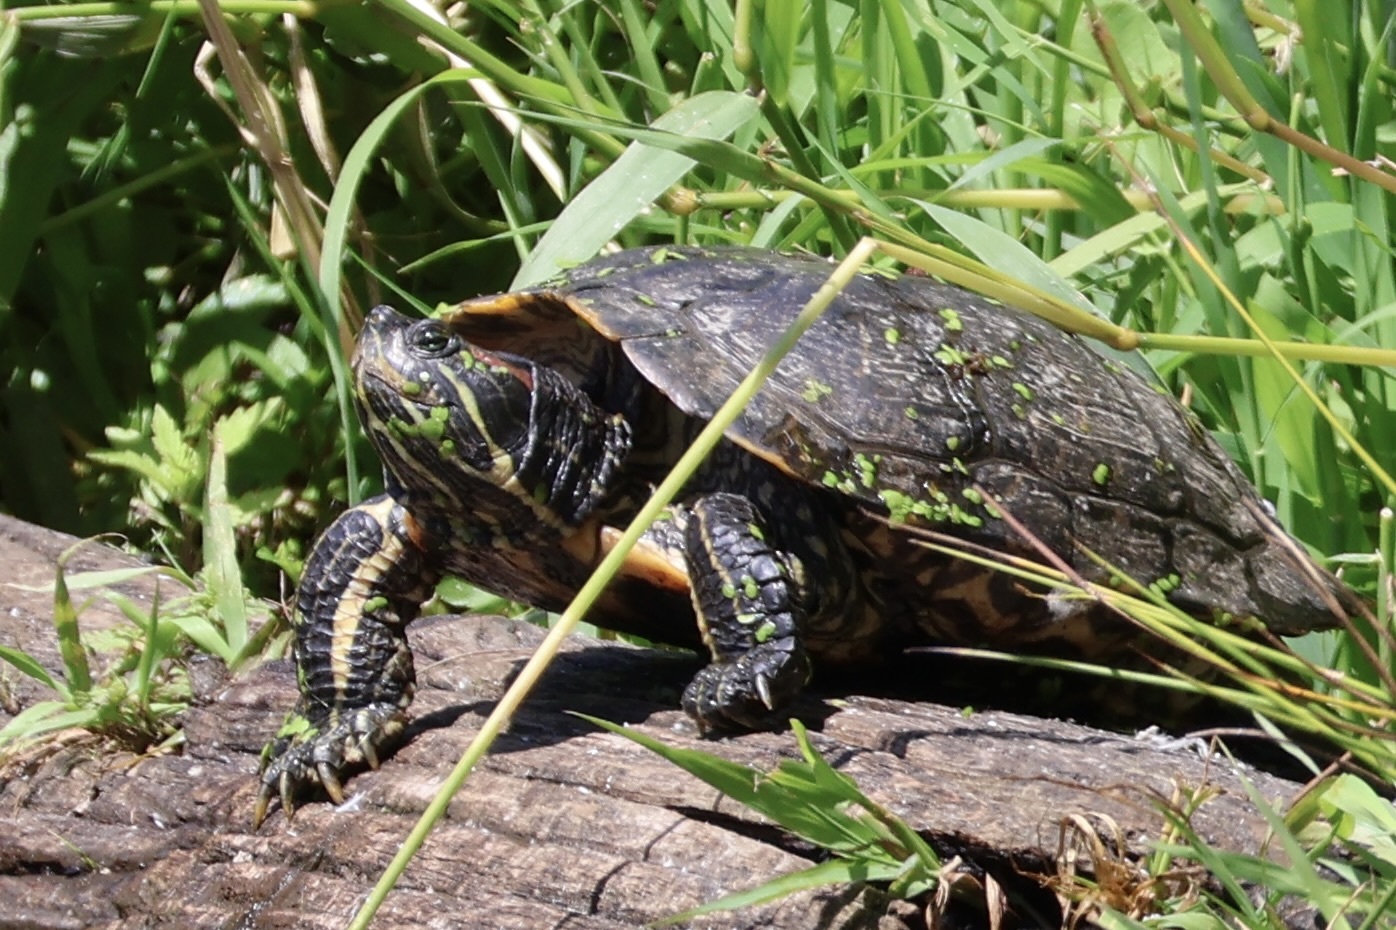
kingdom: Animalia
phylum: Chordata
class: Testudines
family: Emydidae
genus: Trachemys
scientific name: Trachemys scripta
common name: Slider
